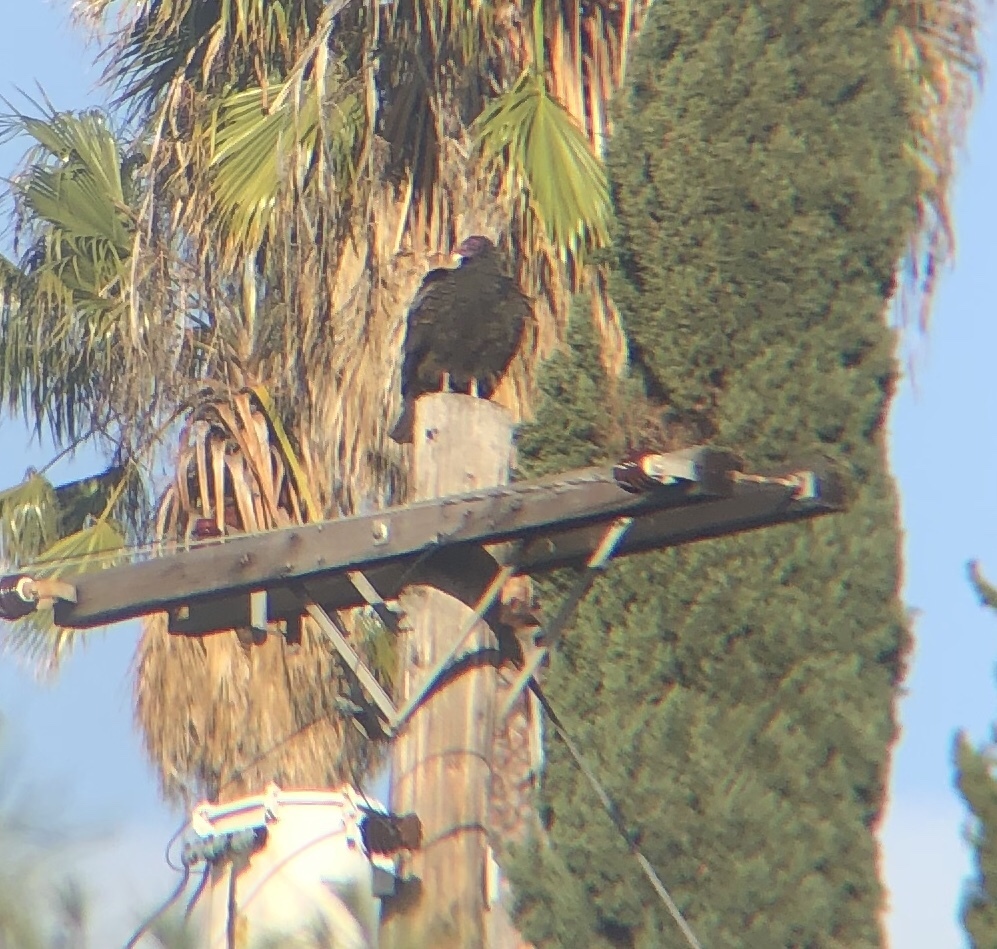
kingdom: Animalia
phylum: Chordata
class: Aves
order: Accipitriformes
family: Cathartidae
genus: Cathartes
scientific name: Cathartes aura
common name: Turkey vulture
